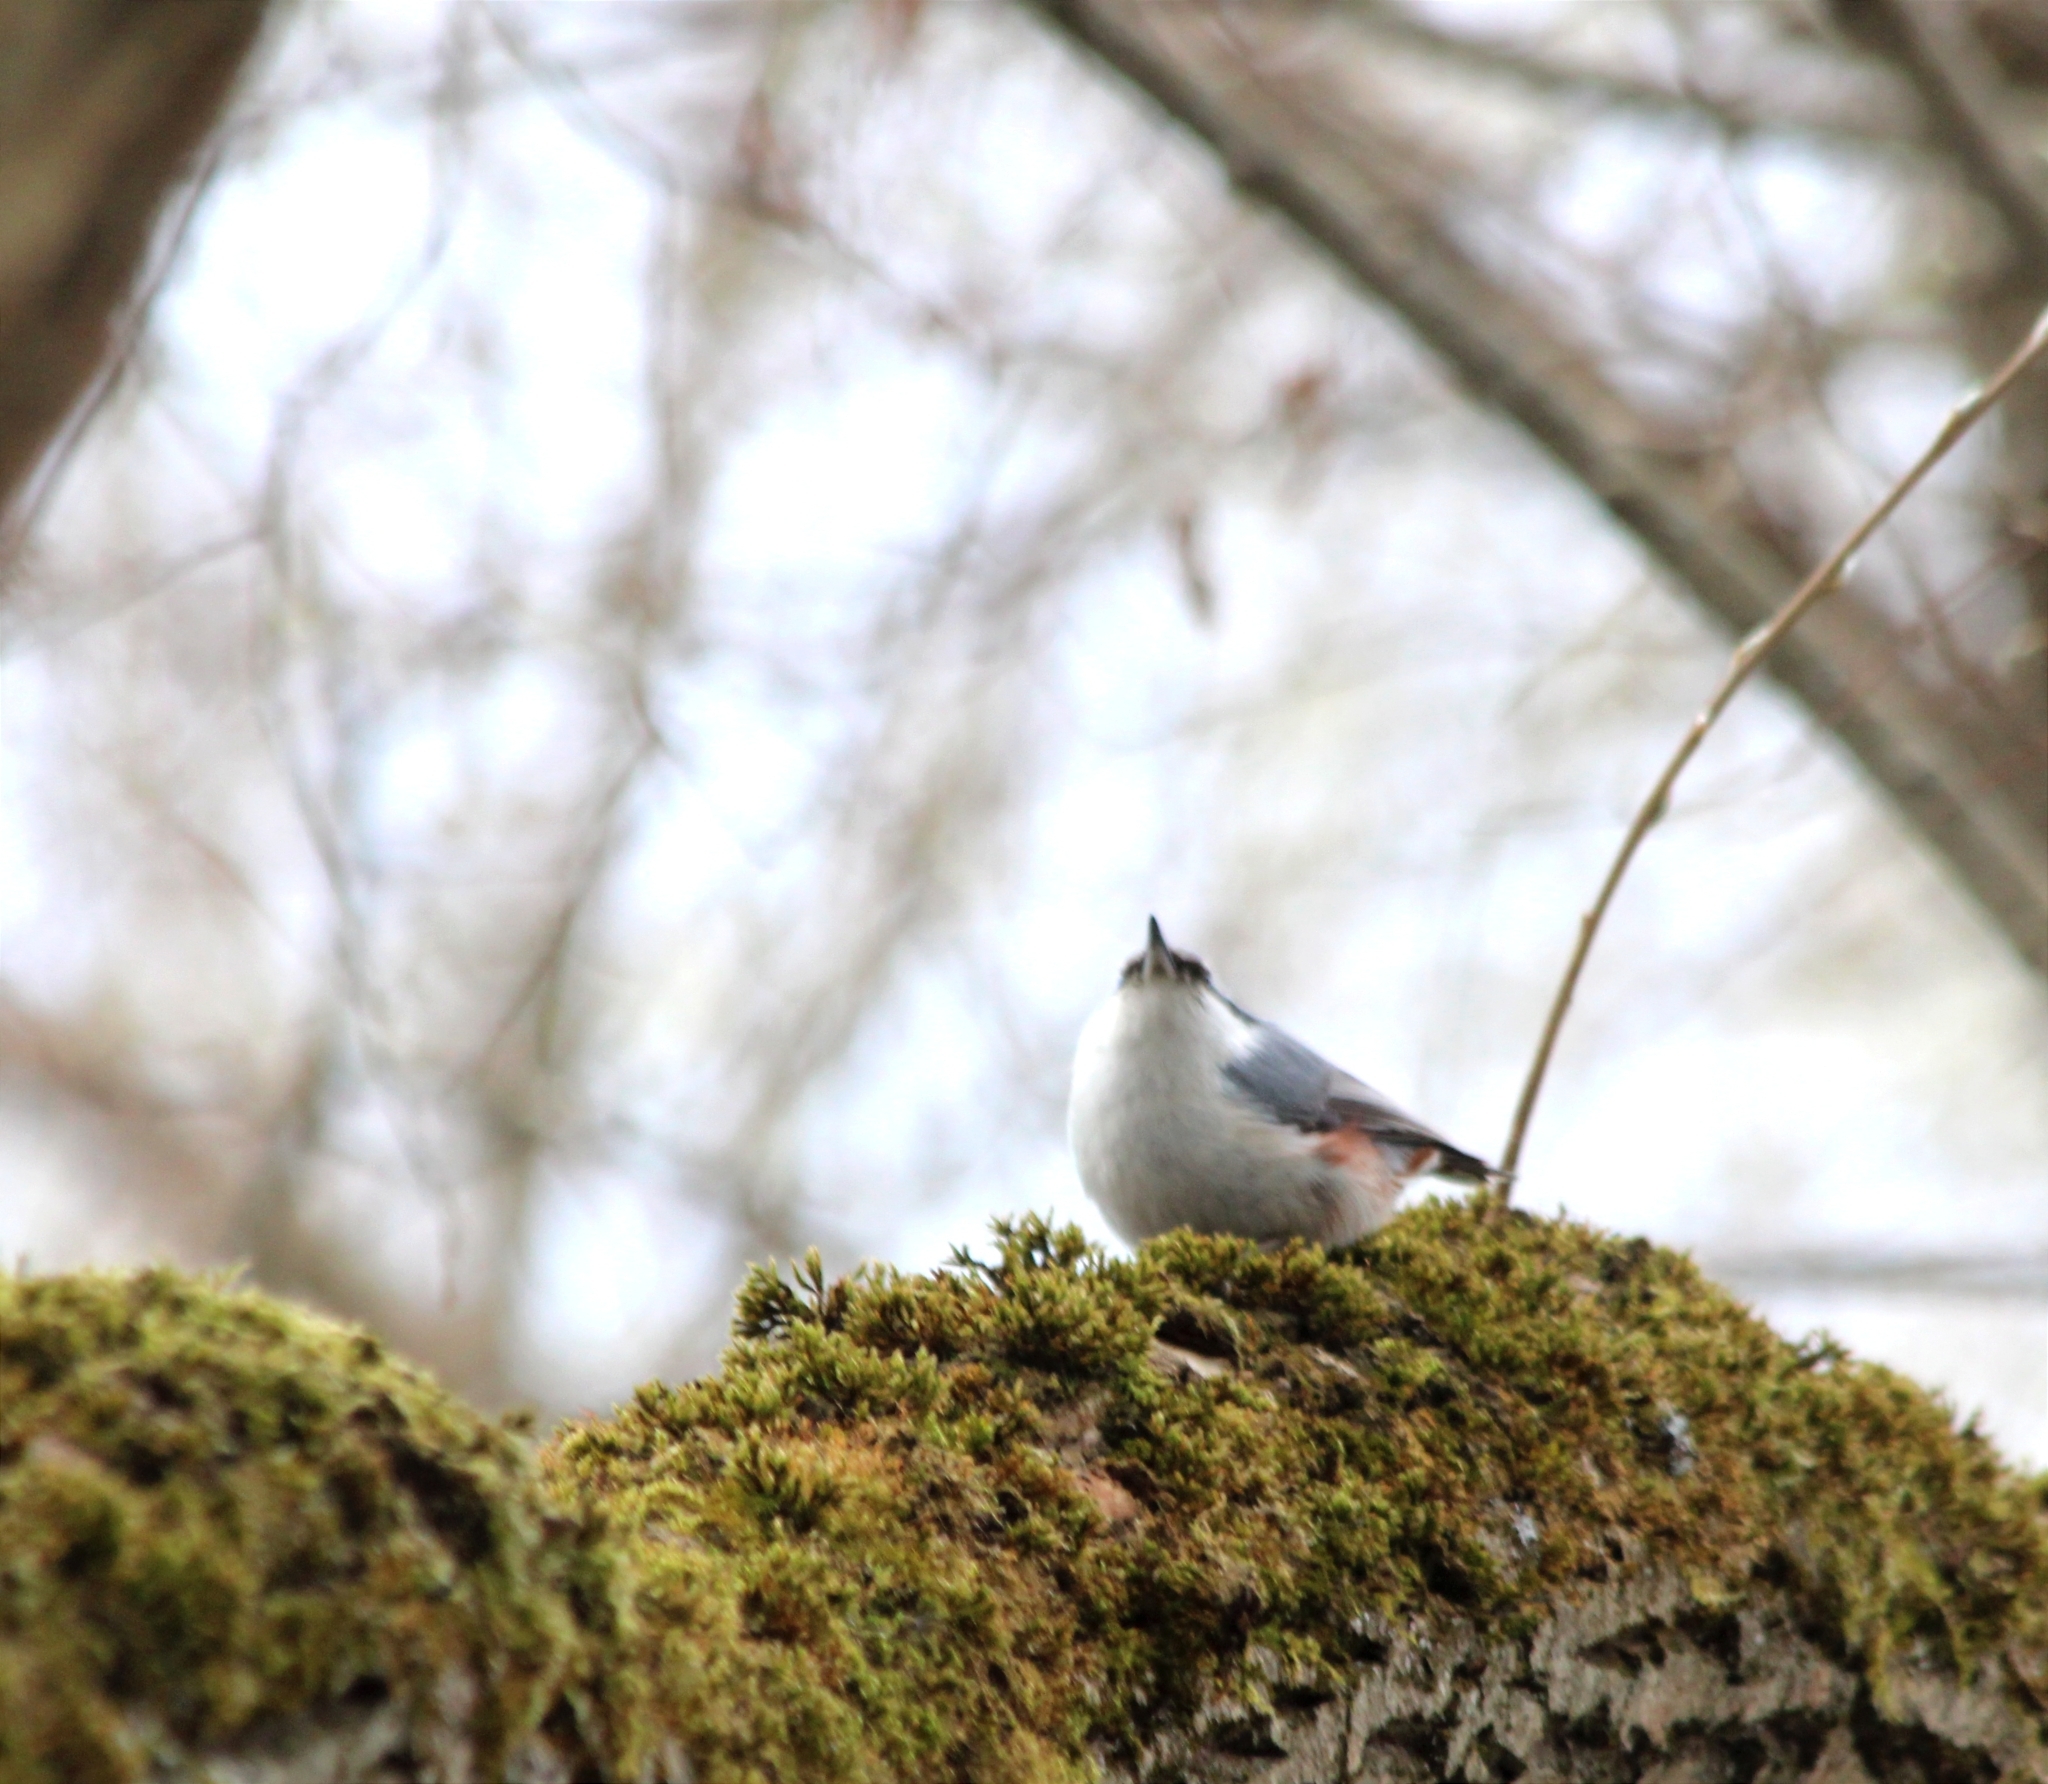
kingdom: Animalia
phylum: Chordata
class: Aves
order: Passeriformes
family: Sittidae
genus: Sitta
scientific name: Sitta europaea
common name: Eurasian nuthatch
